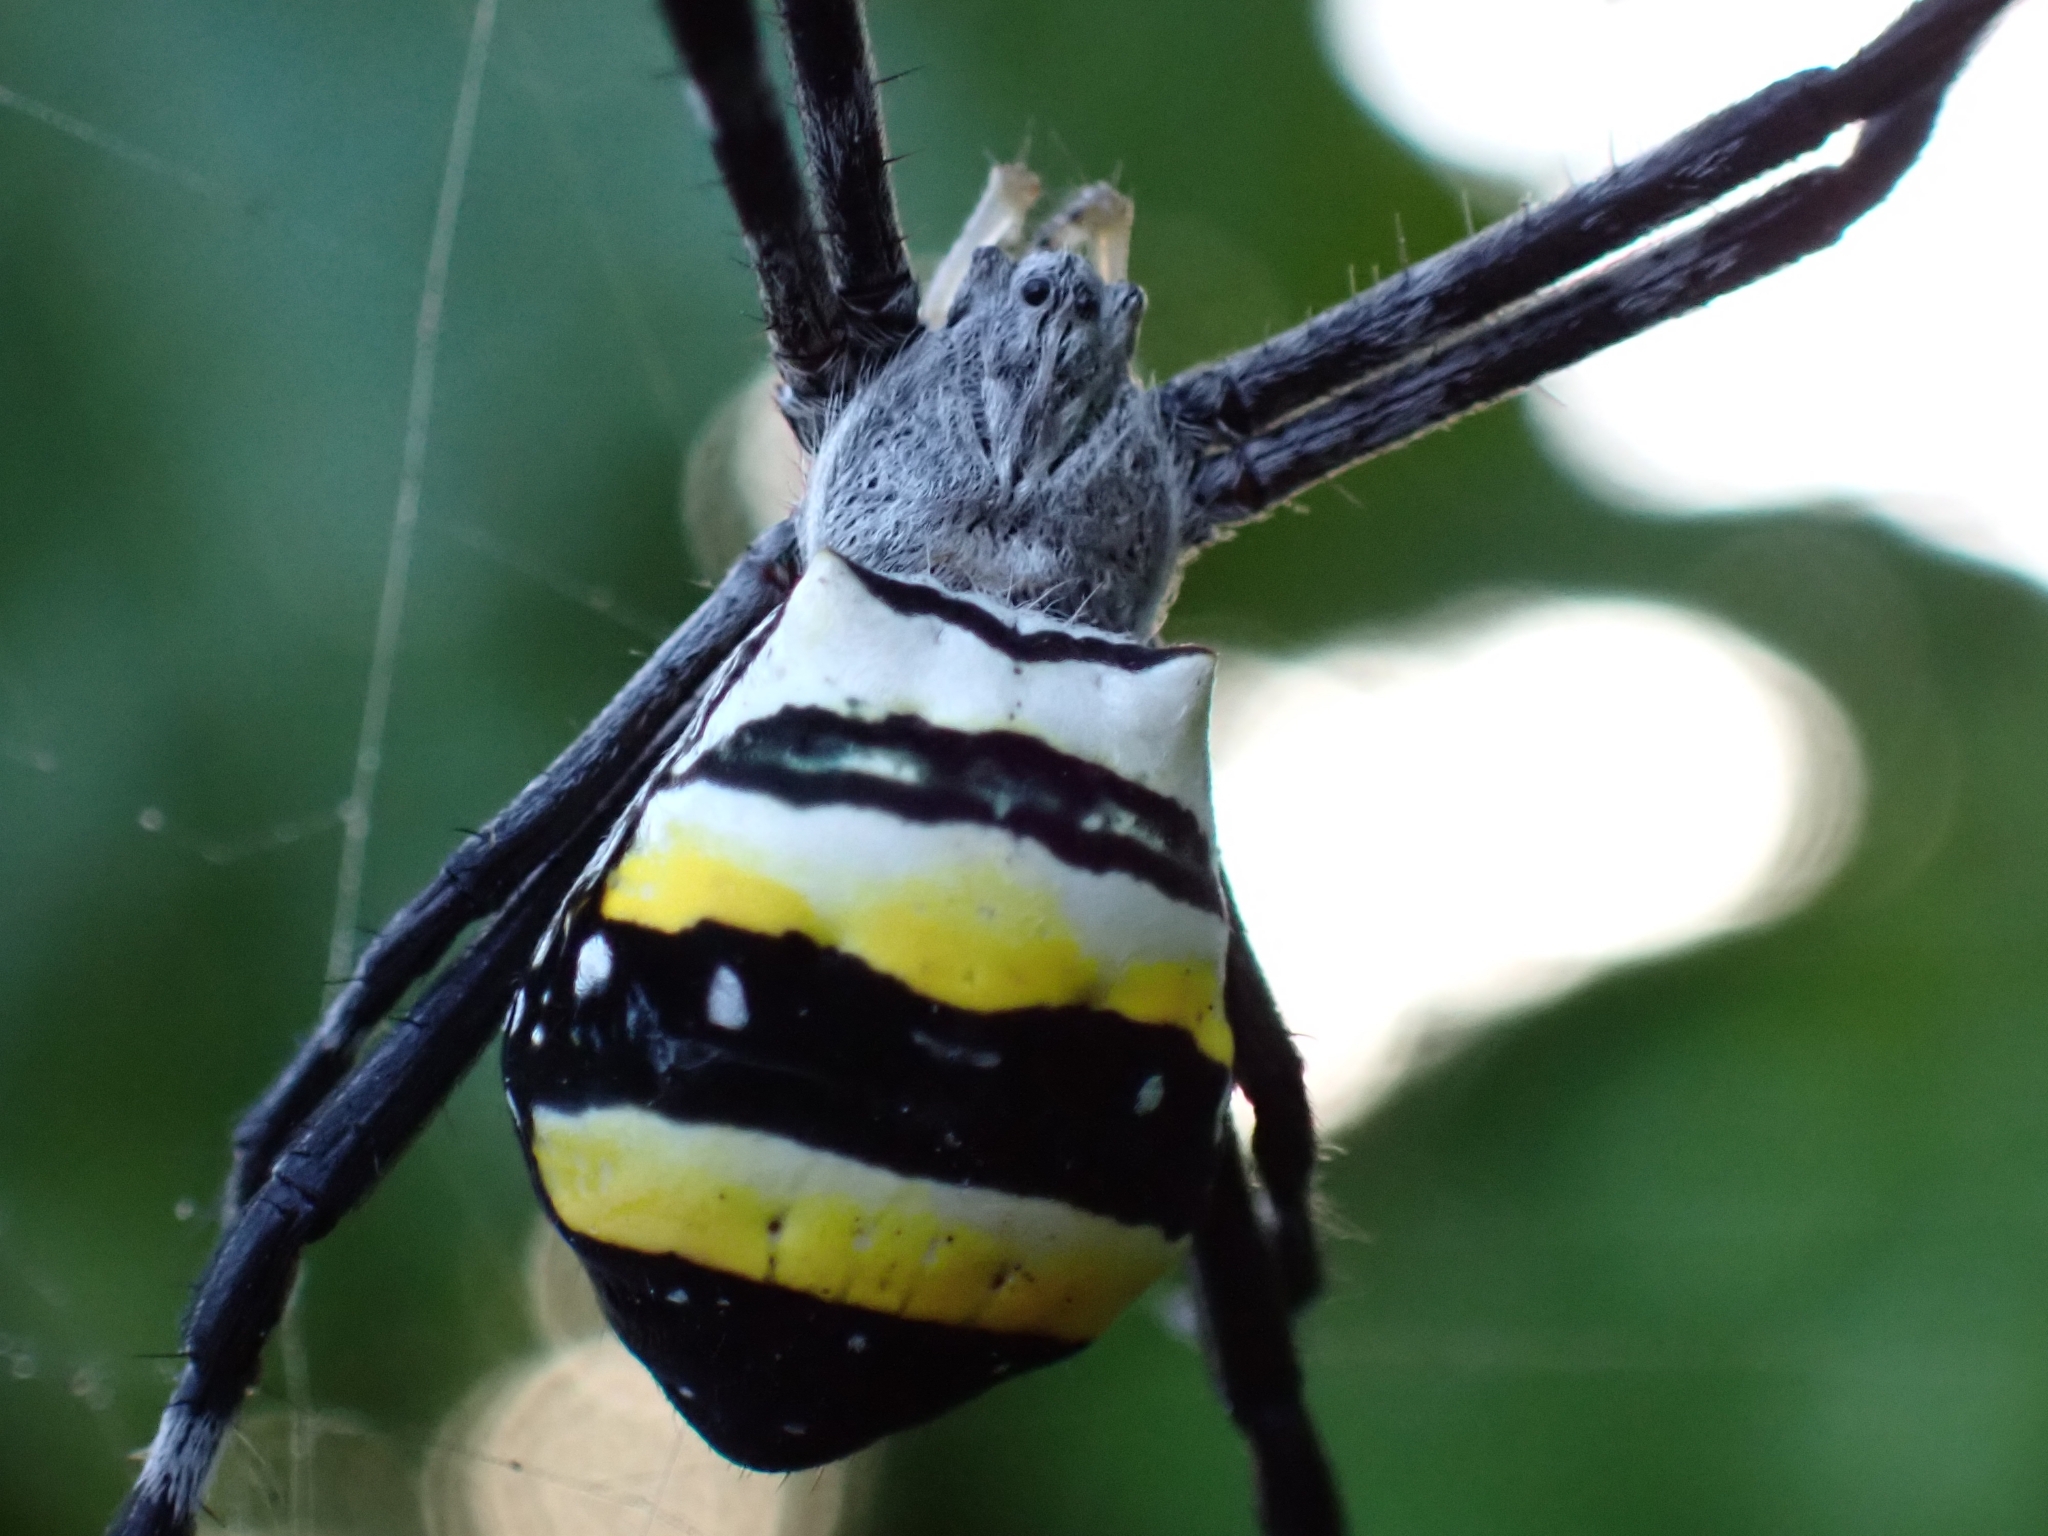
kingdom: Animalia
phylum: Arthropoda
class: Arachnida
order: Araneae
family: Araneidae
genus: Argiope
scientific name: Argiope caledonia
